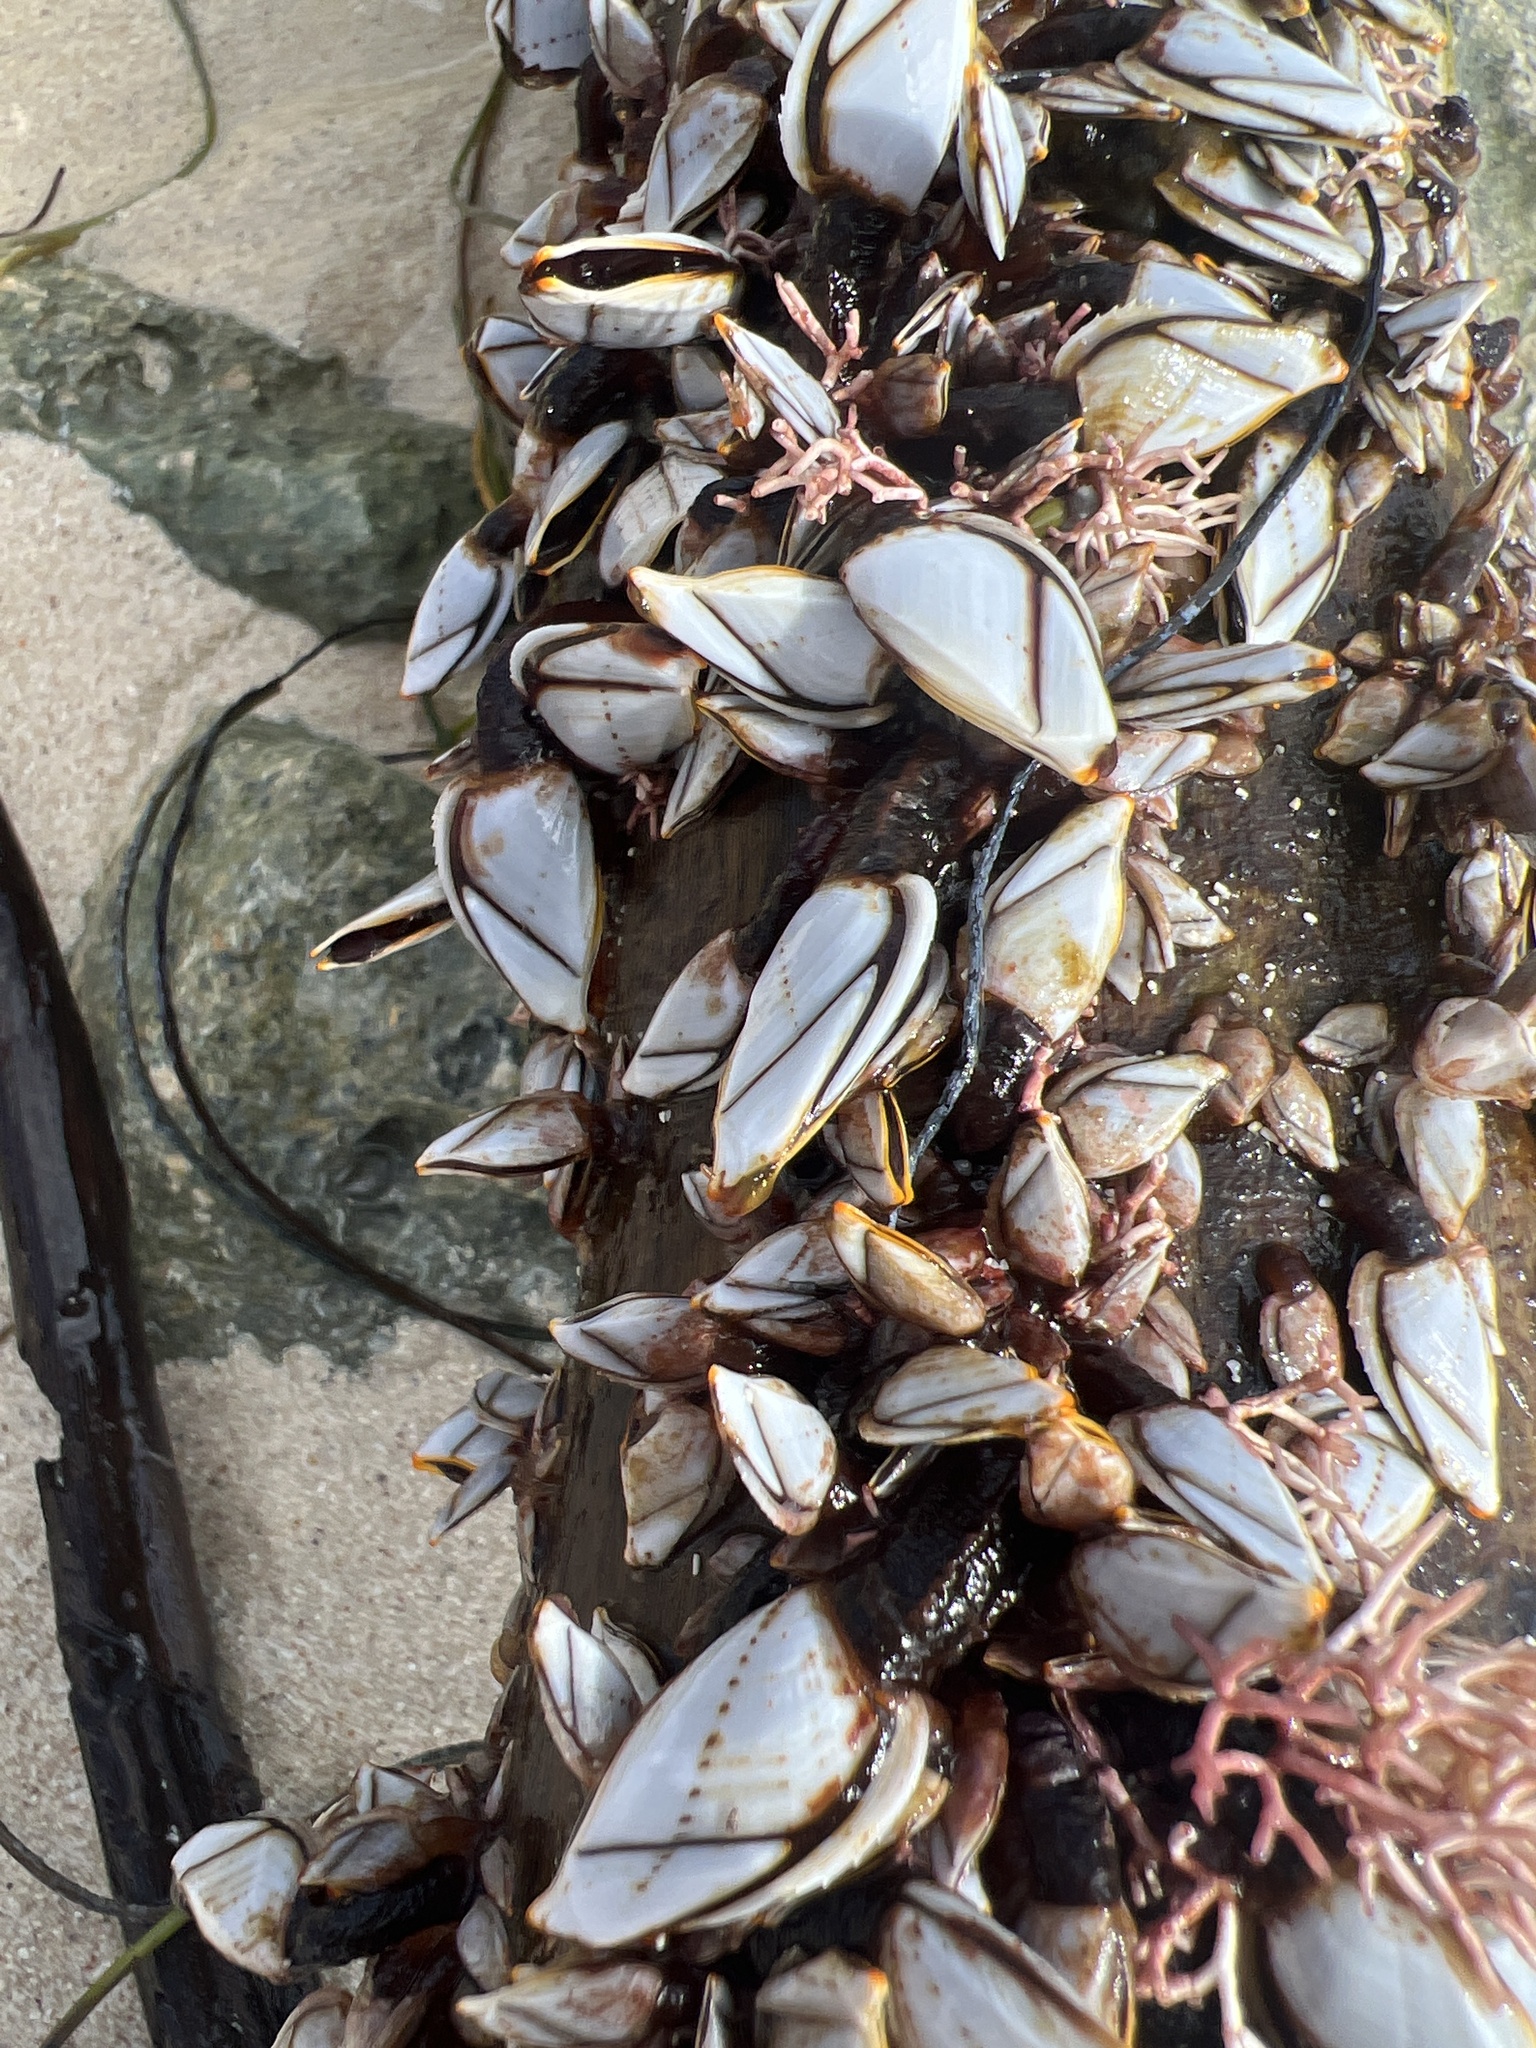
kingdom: Animalia
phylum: Arthropoda
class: Maxillopoda
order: Pedunculata
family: Lepadidae
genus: Lepas
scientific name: Lepas indica
